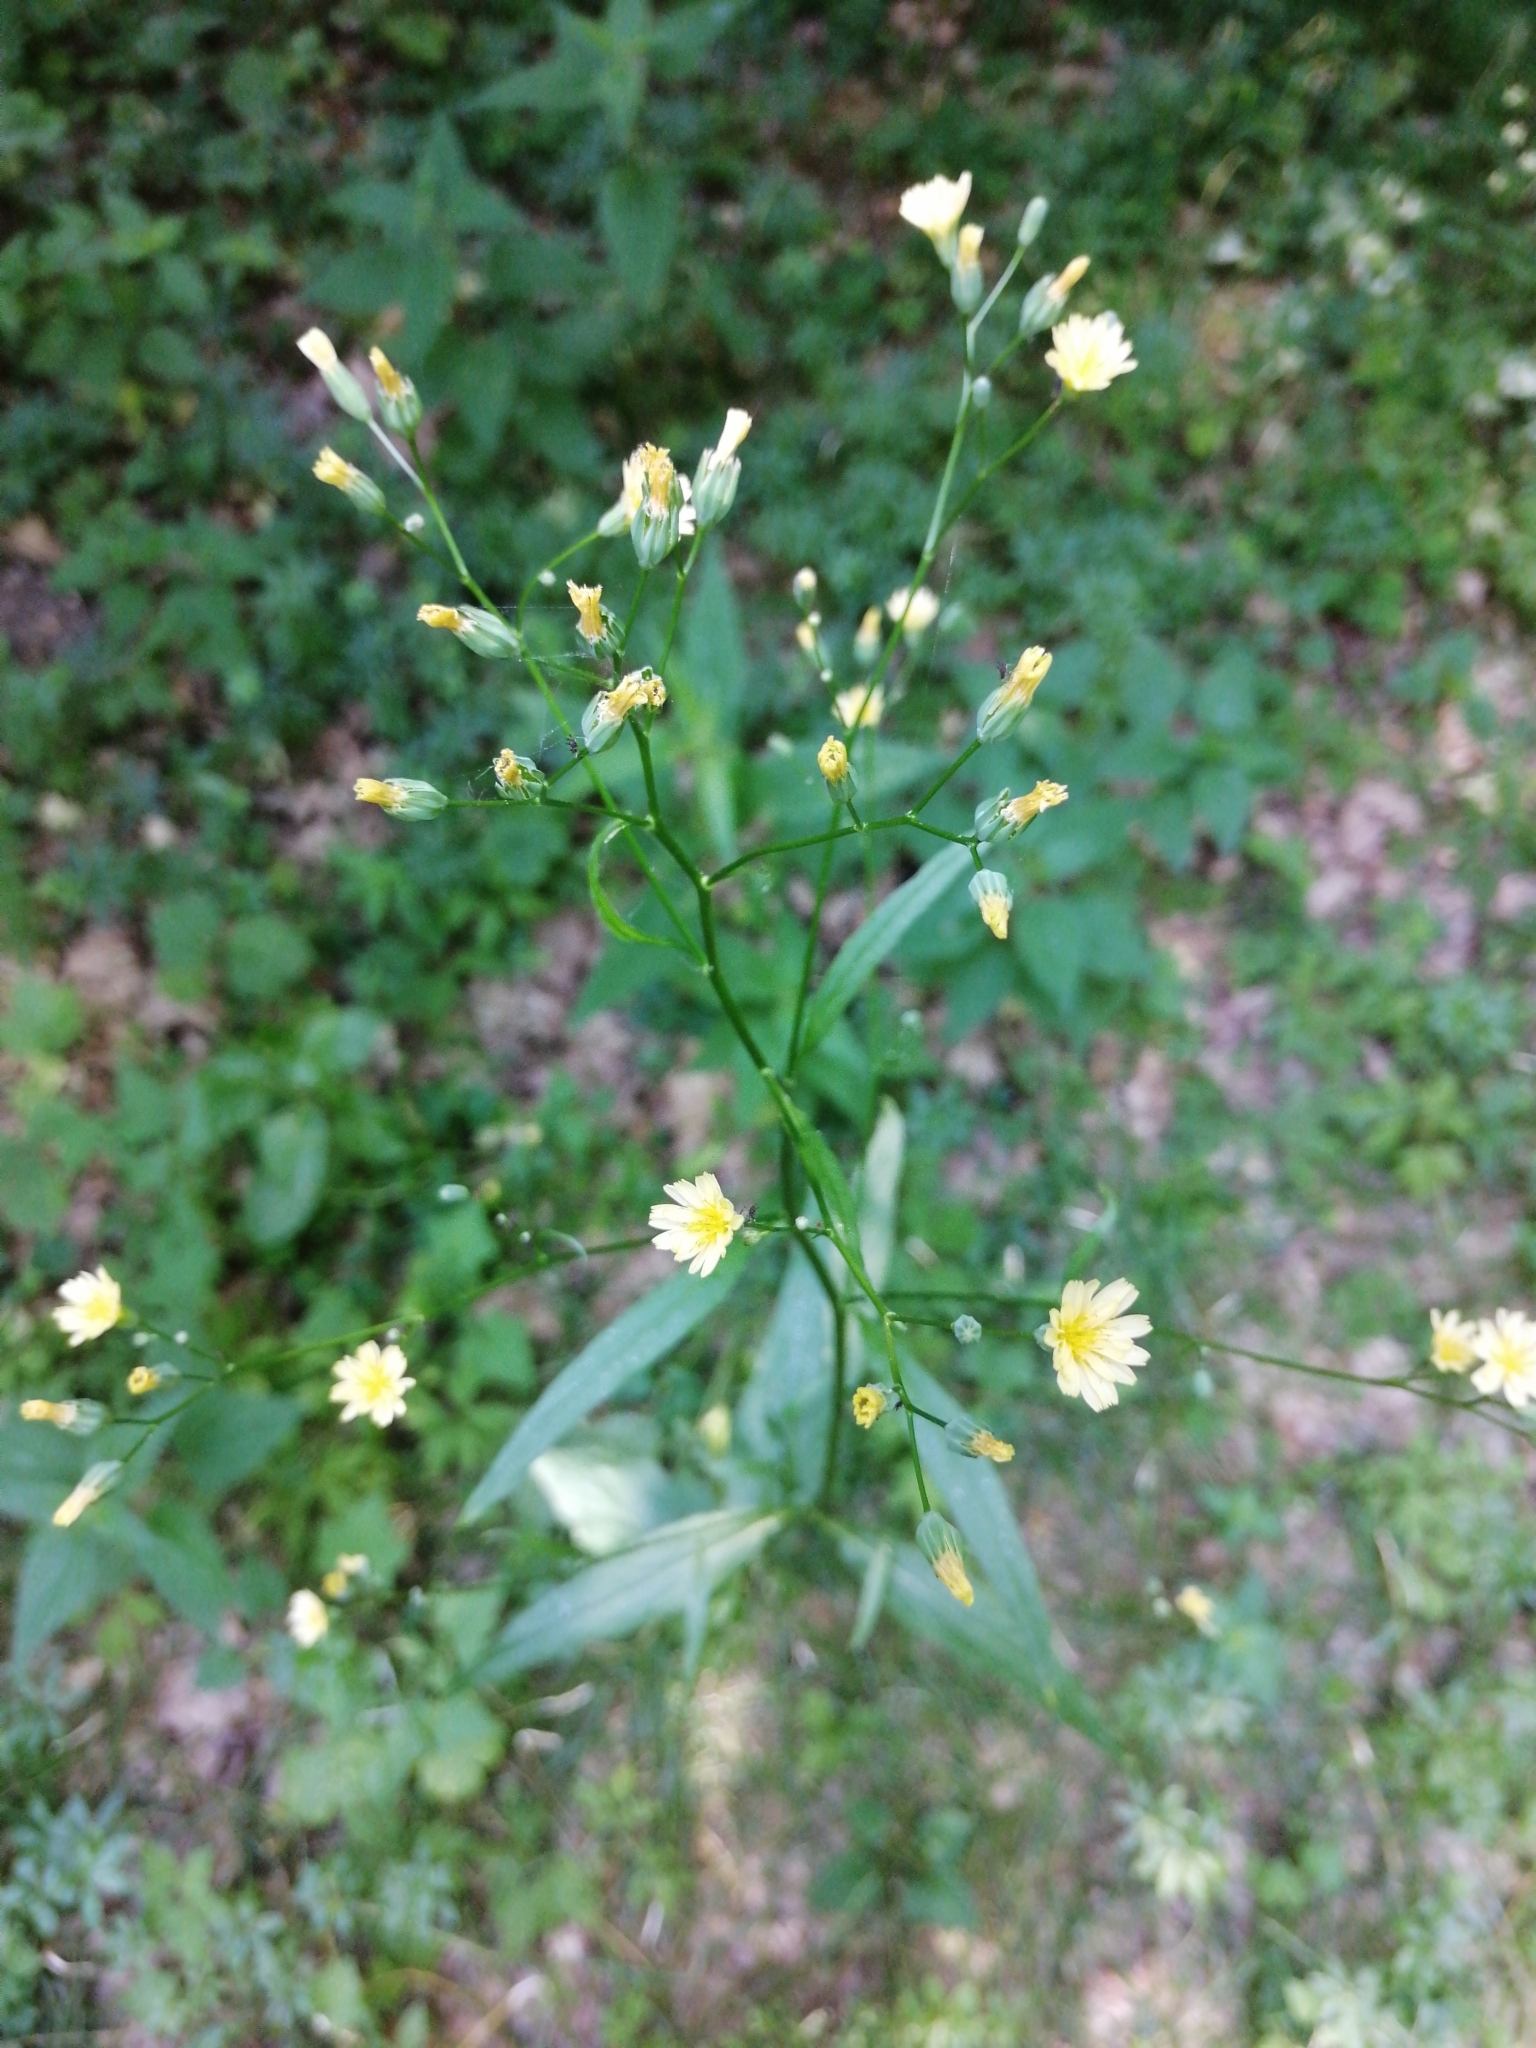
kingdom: Plantae
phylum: Tracheophyta
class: Magnoliopsida
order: Asterales
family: Asteraceae
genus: Lapsana
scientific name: Lapsana communis
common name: Nipplewort
